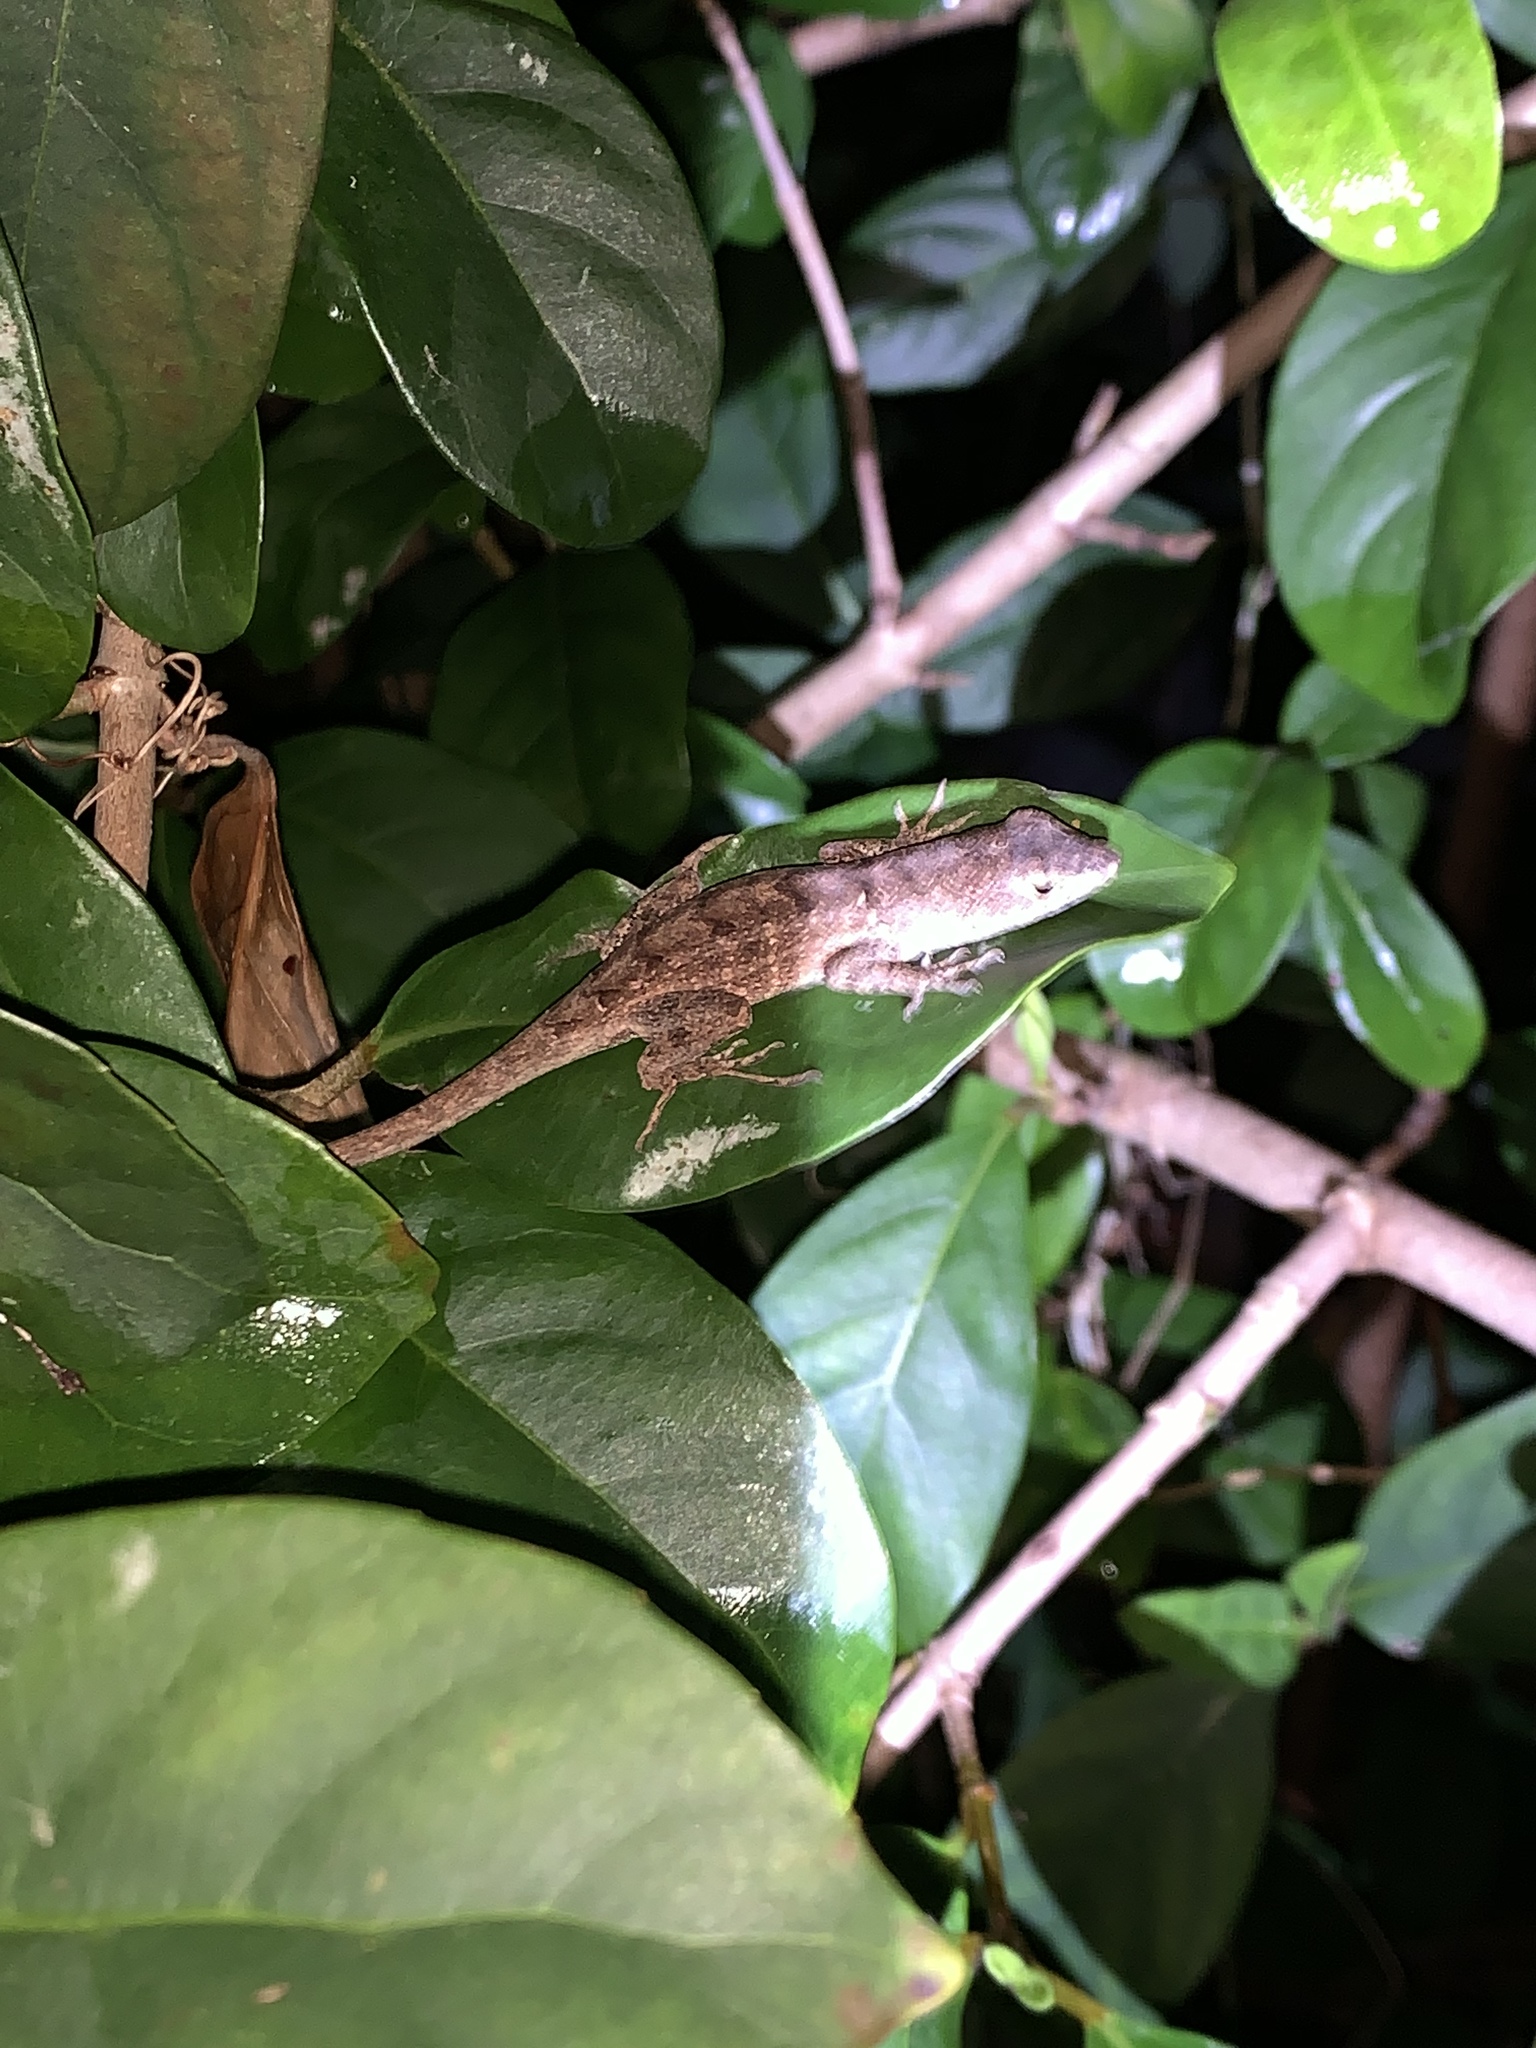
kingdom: Animalia
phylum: Chordata
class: Squamata
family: Dactyloidae
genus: Anolis
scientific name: Anolis sagrei
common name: Brown anole
